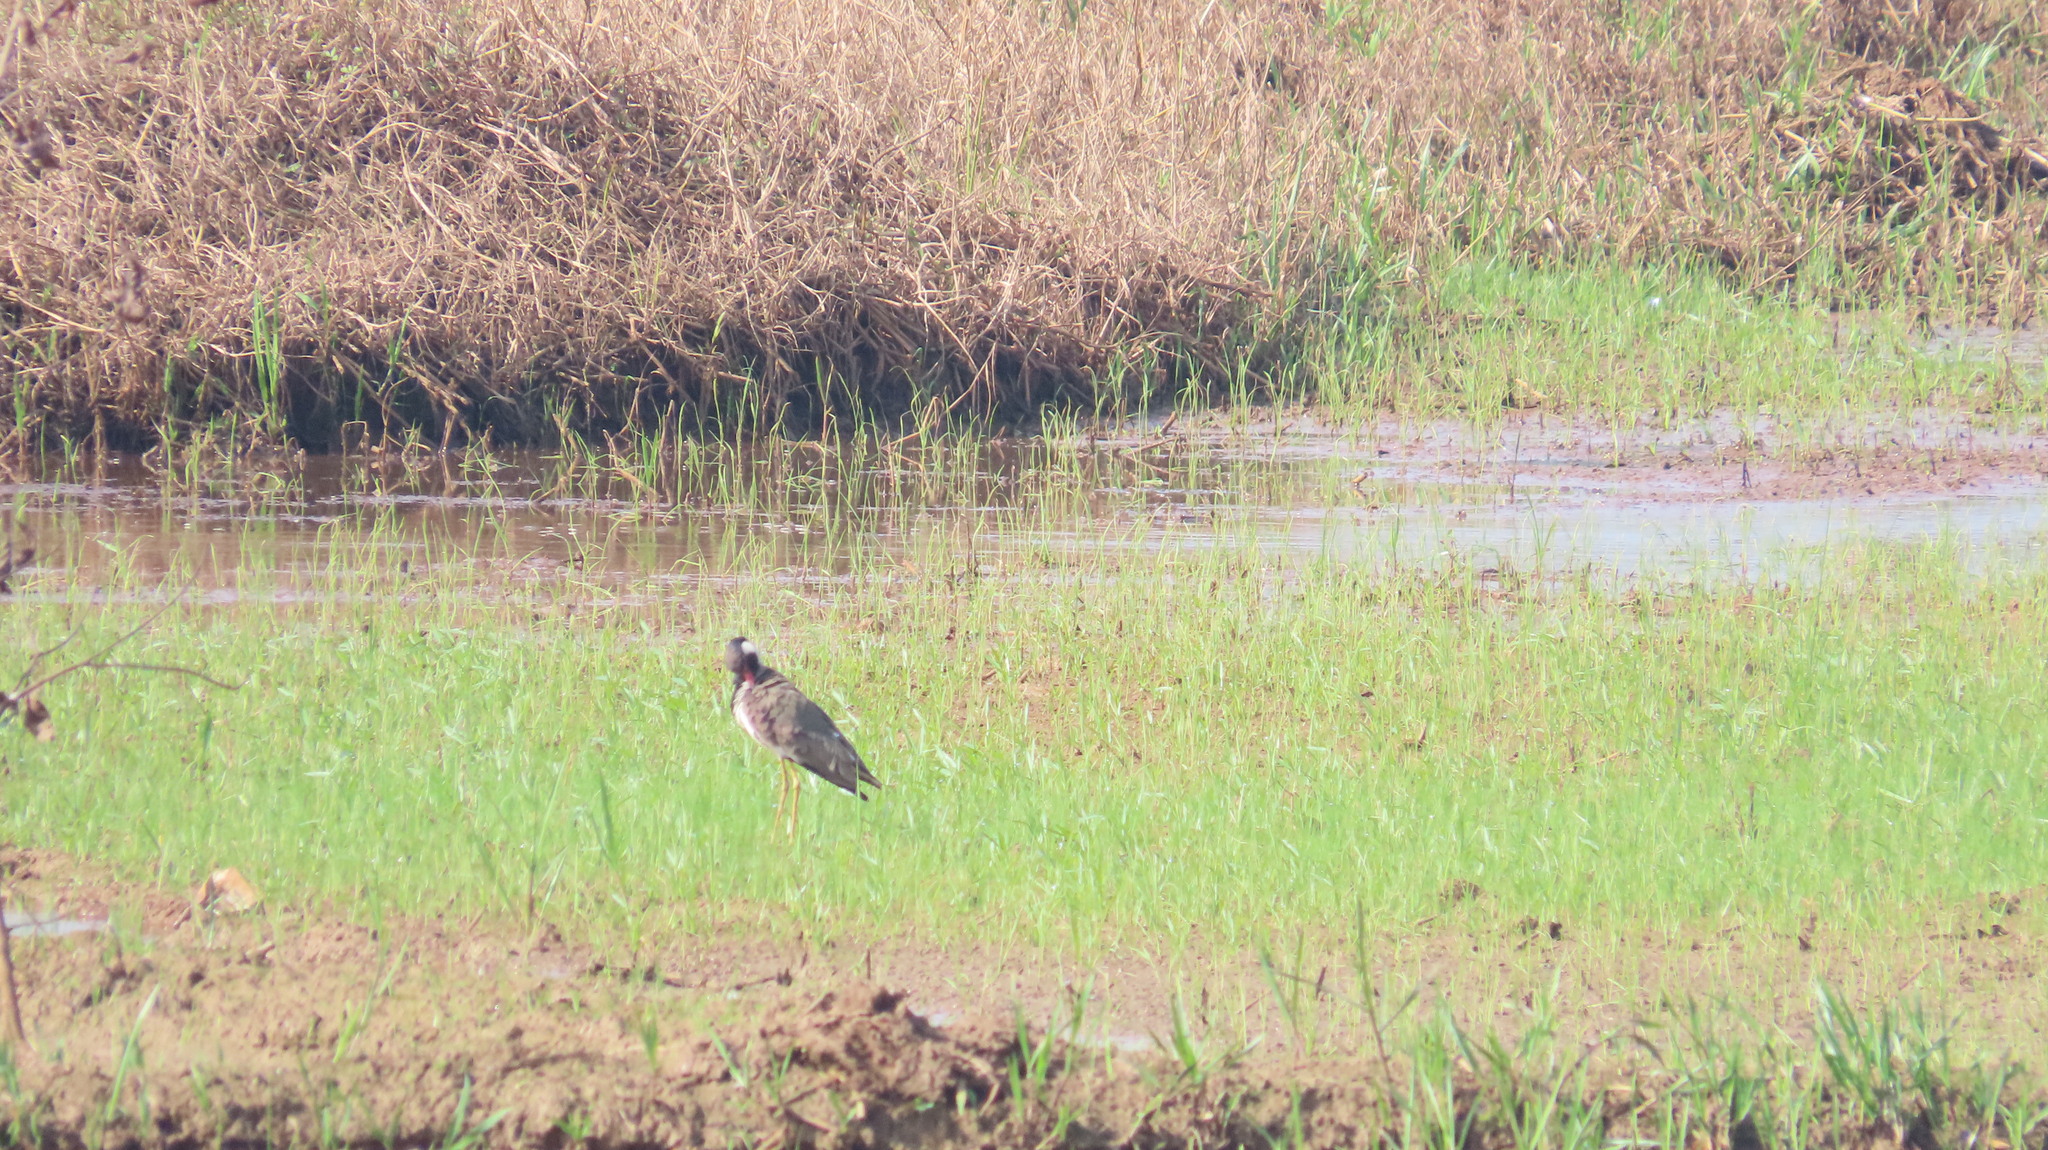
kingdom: Animalia
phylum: Chordata
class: Aves
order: Charadriiformes
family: Charadriidae
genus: Vanellus
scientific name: Vanellus indicus
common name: Red-wattled lapwing
